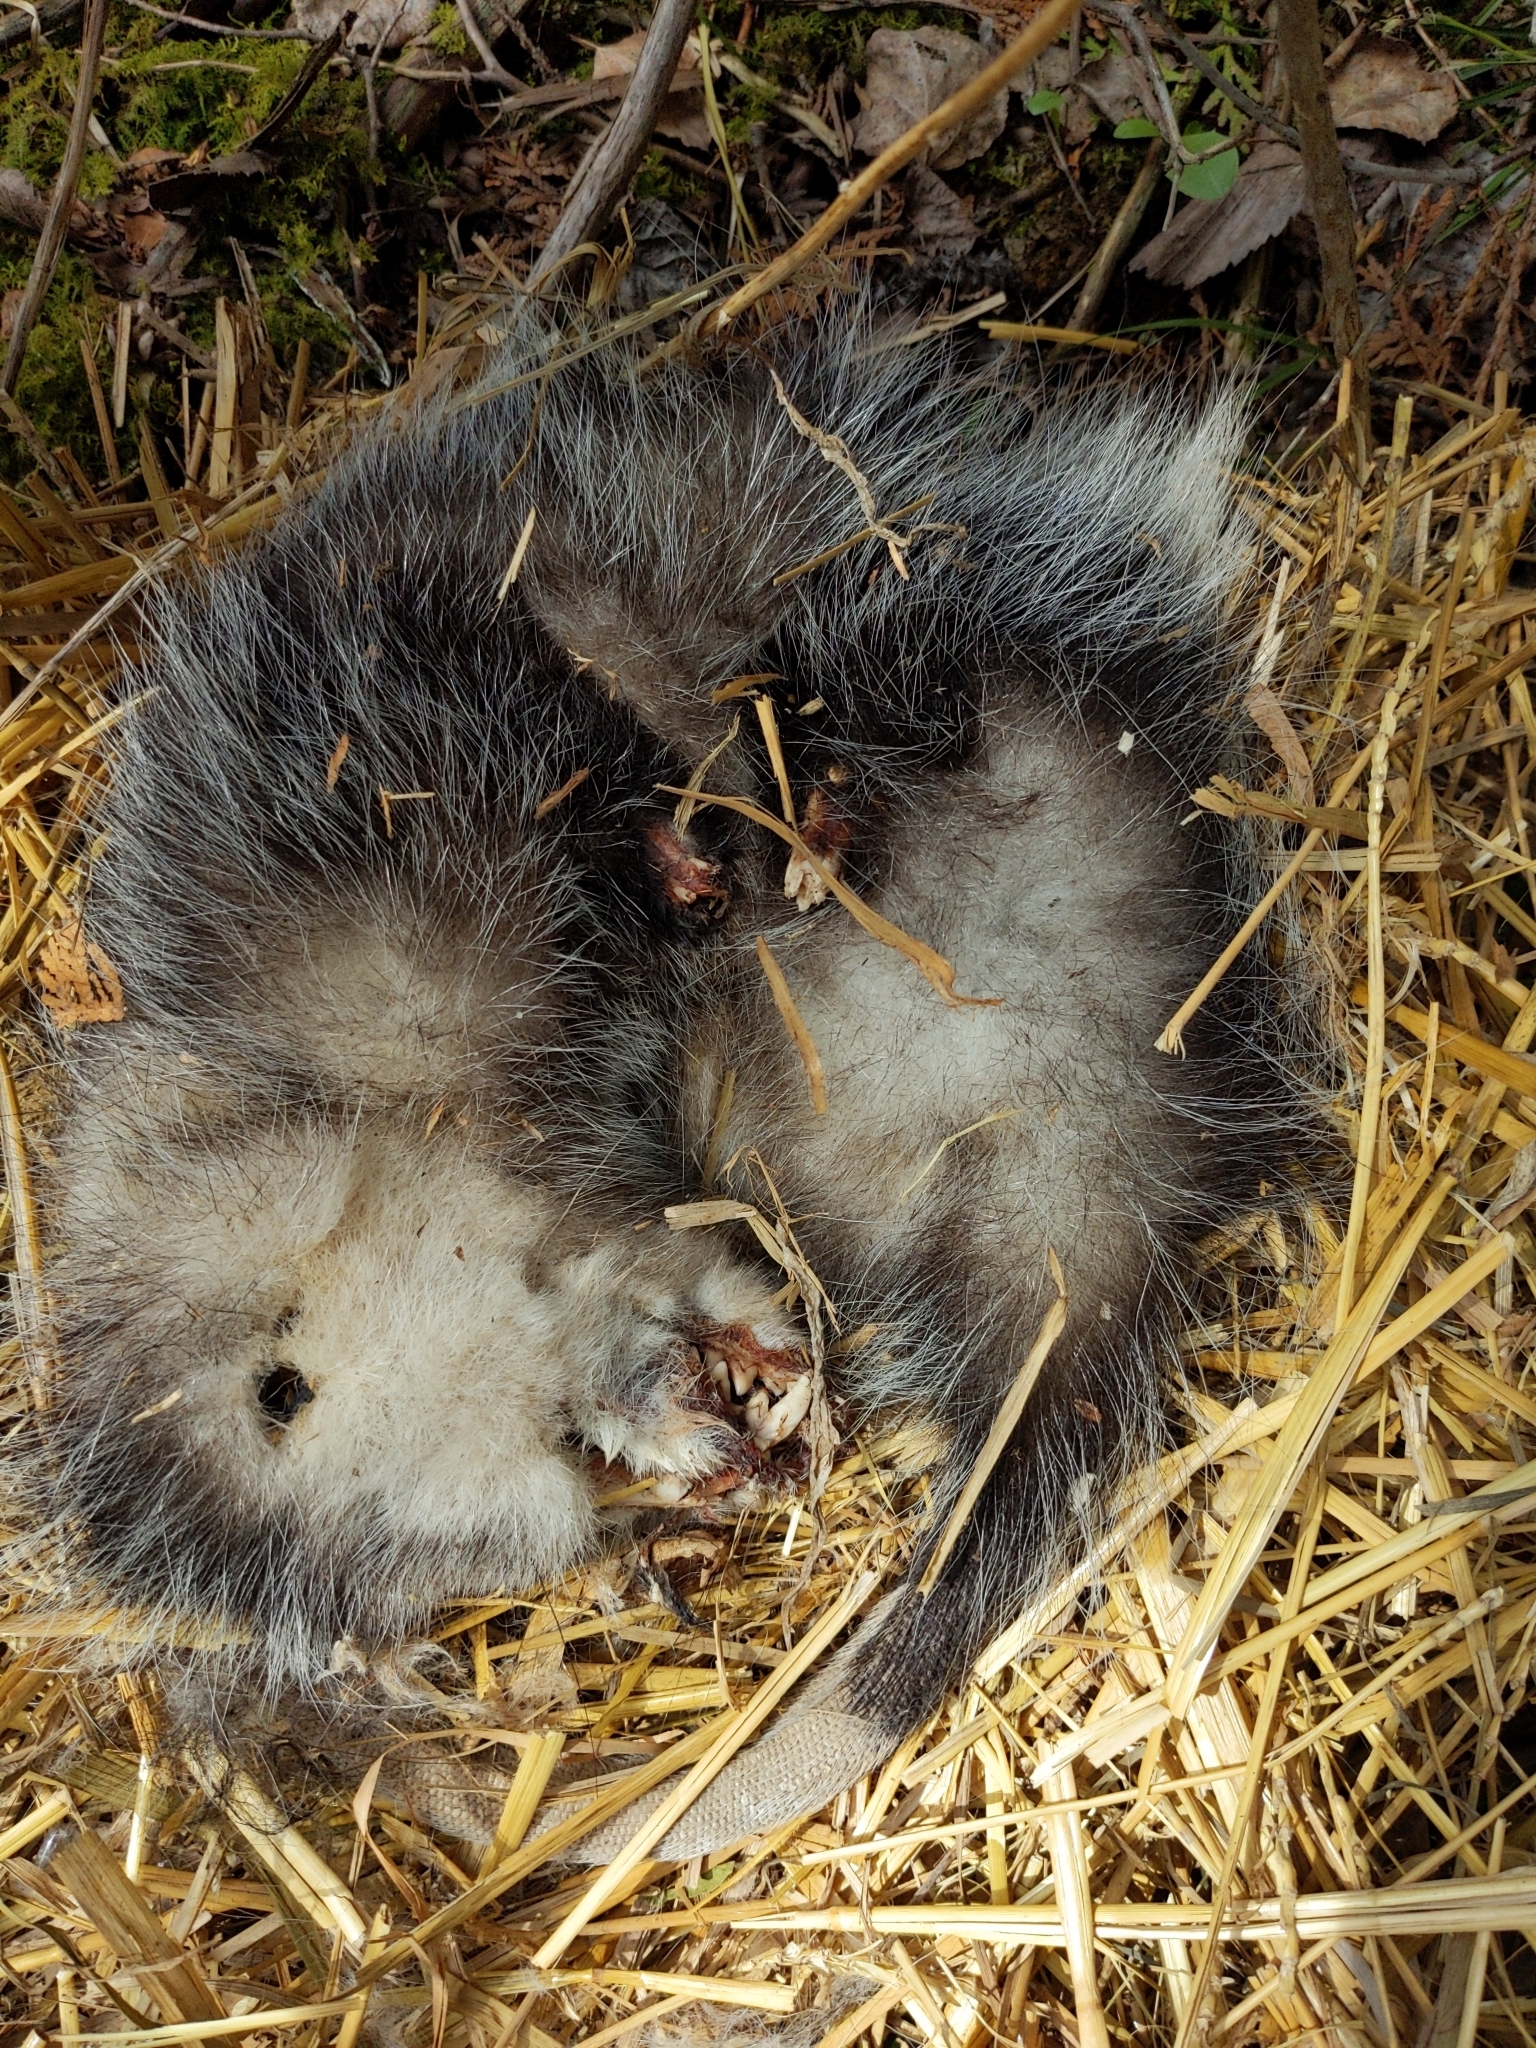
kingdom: Animalia
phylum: Chordata
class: Mammalia
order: Didelphimorphia
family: Didelphidae
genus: Didelphis
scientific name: Didelphis virginiana
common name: Virginia opossum
